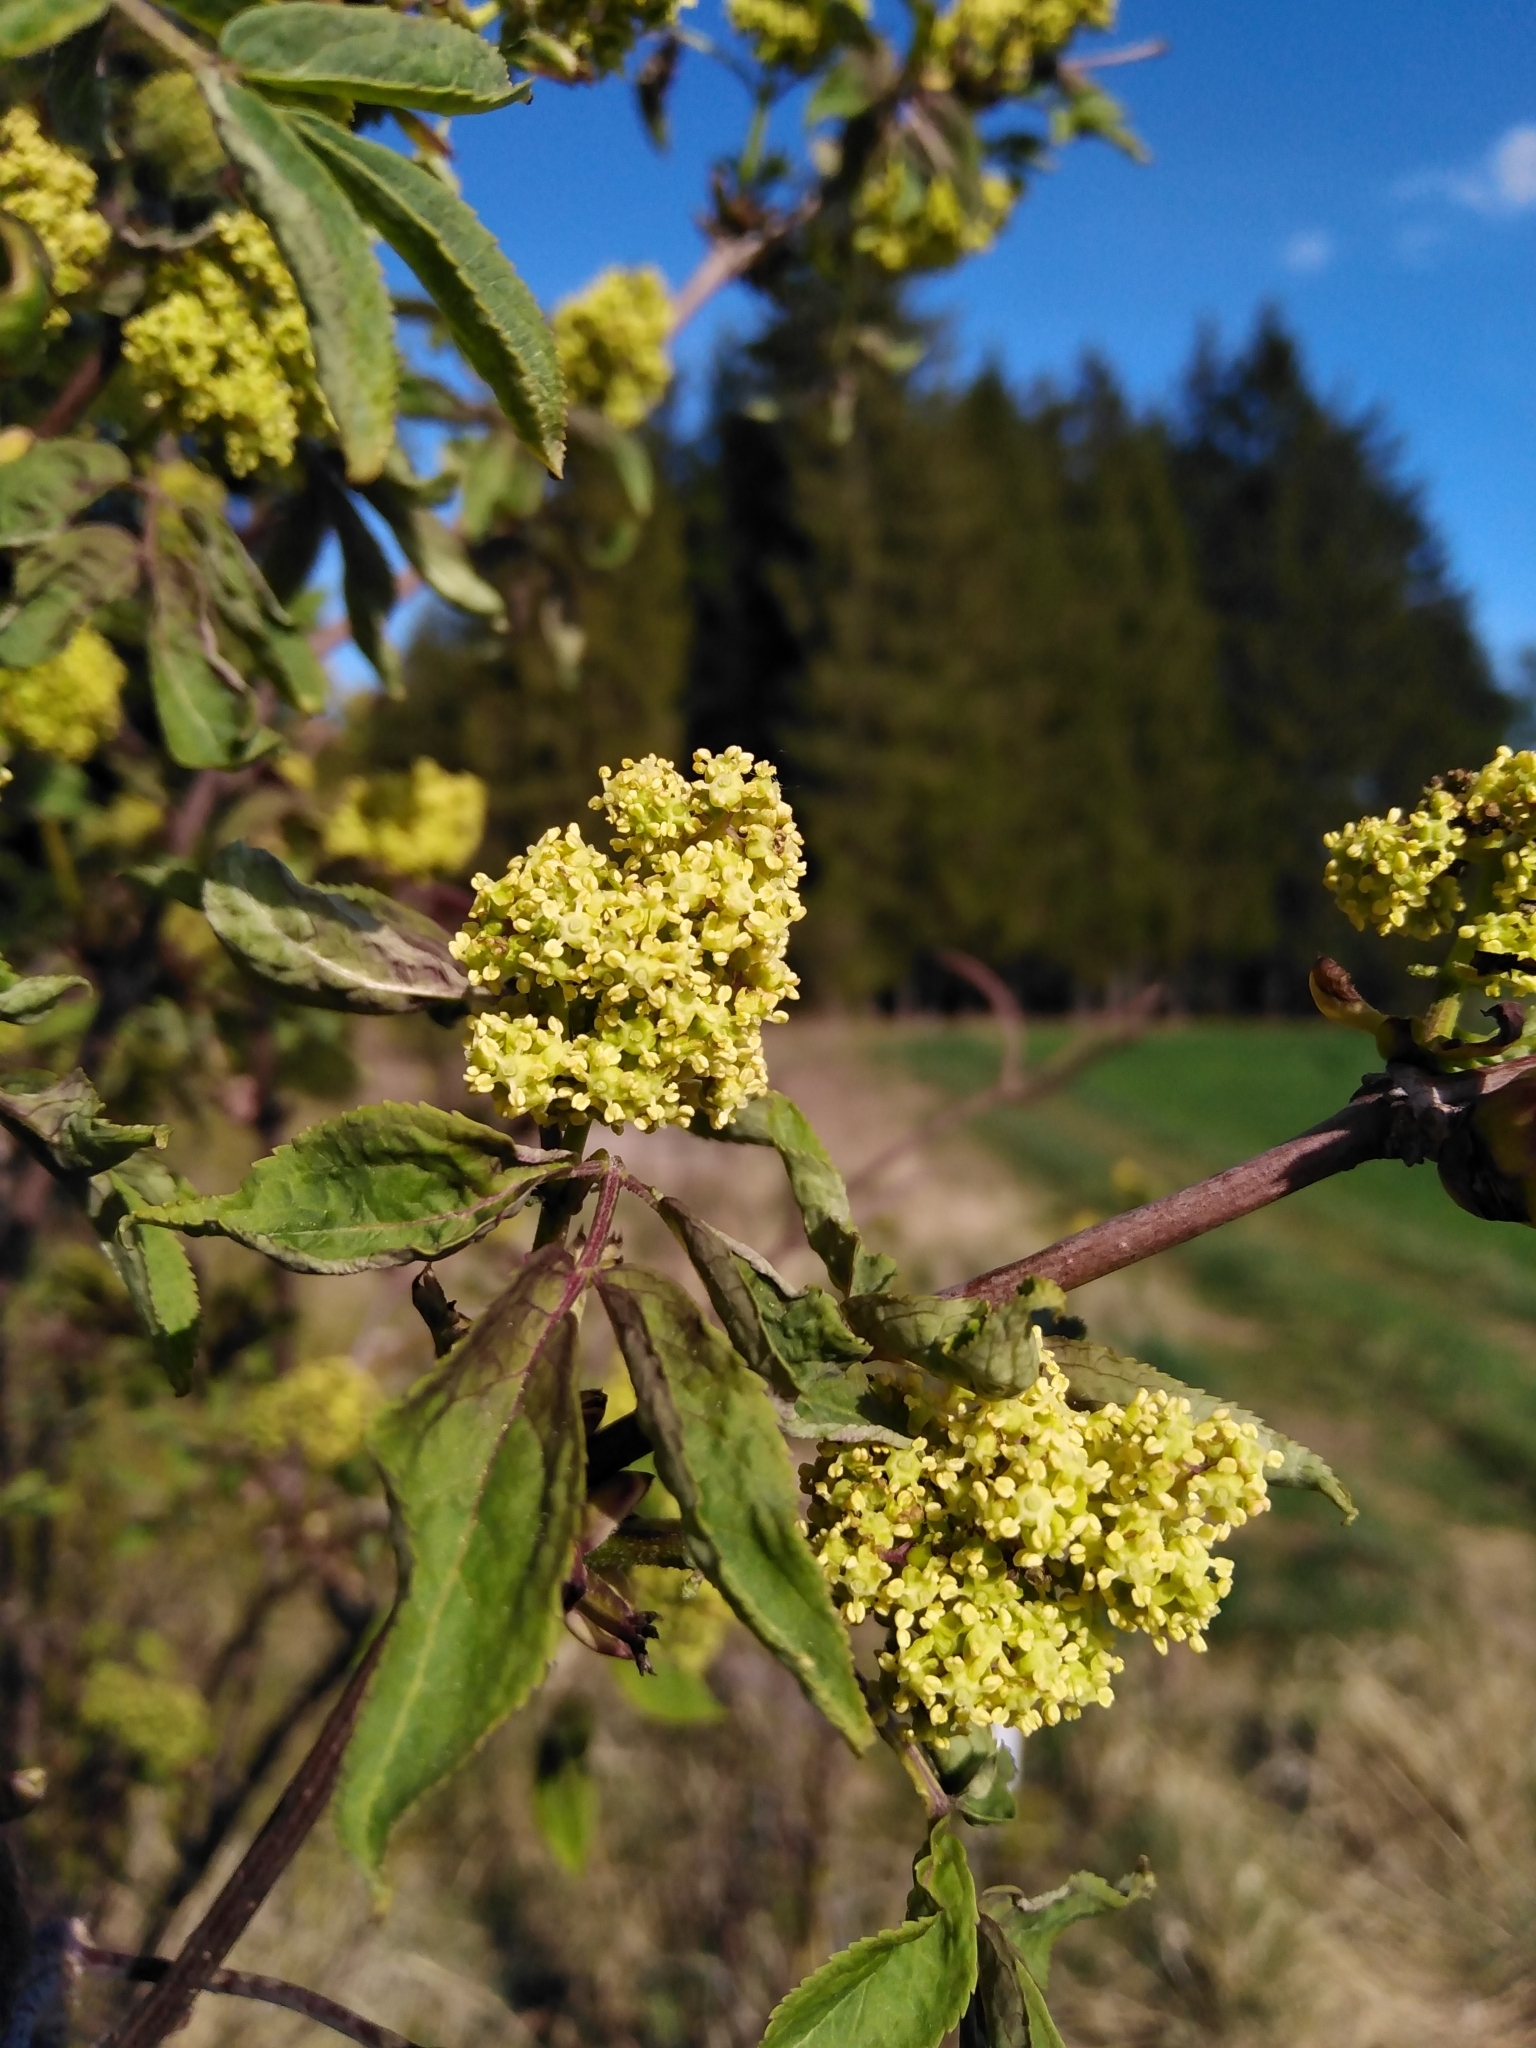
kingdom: Plantae
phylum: Tracheophyta
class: Magnoliopsida
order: Dipsacales
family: Viburnaceae
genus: Sambucus
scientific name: Sambucus racemosa
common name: Red-berried elder
